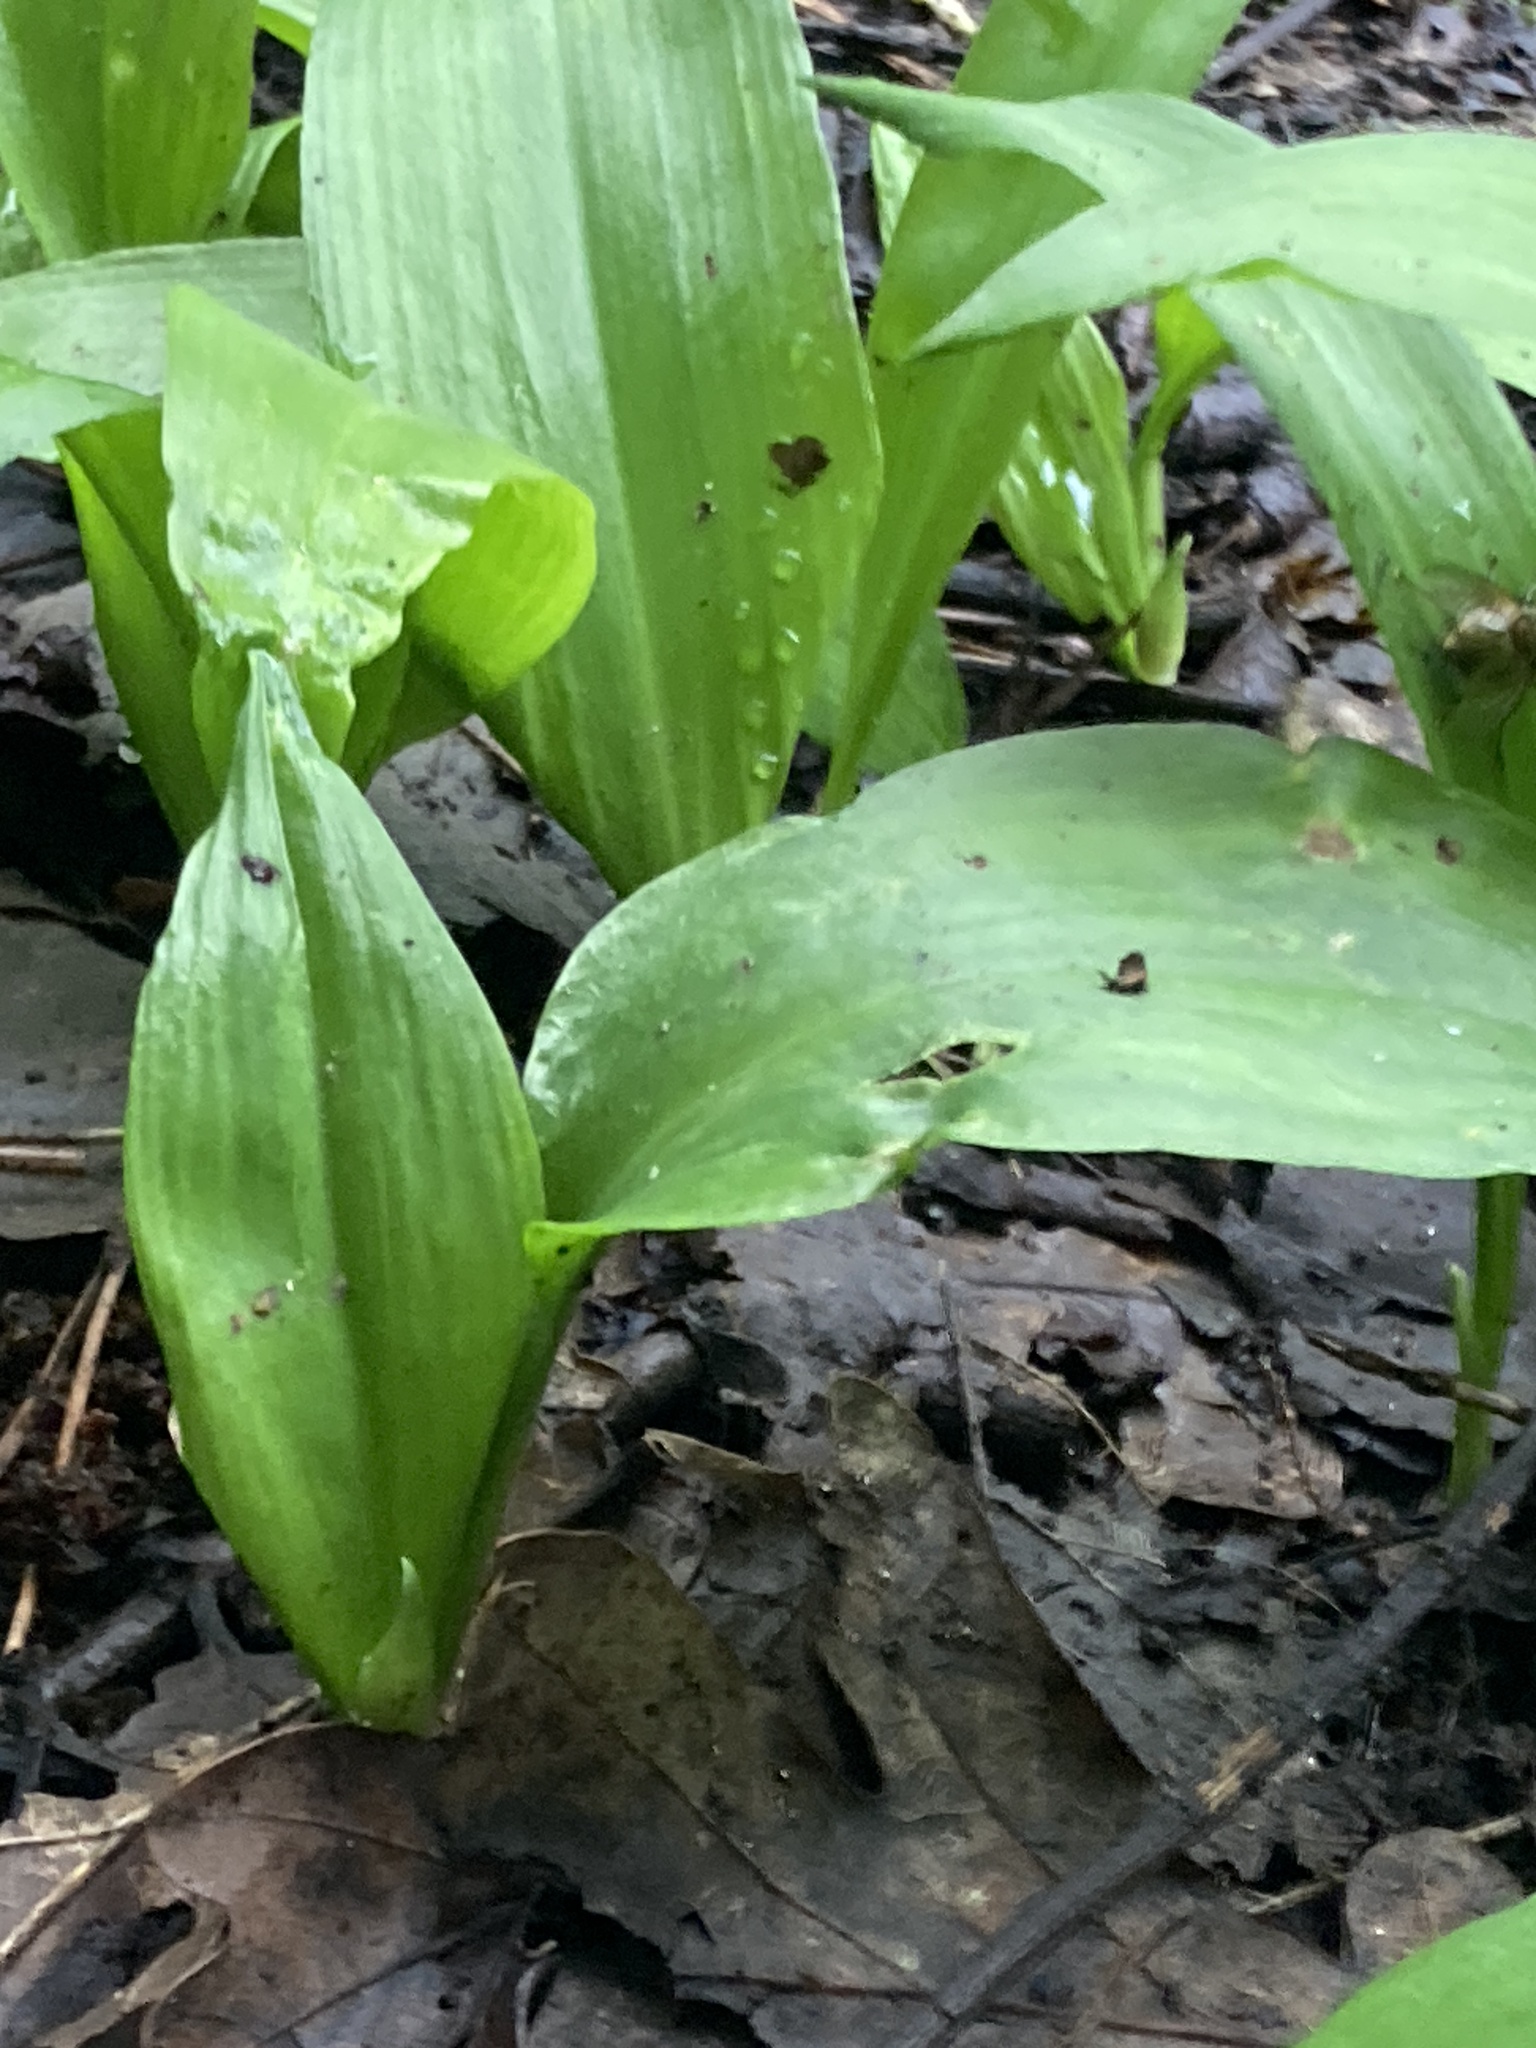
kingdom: Plantae
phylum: Tracheophyta
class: Liliopsida
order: Asparagales
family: Amaryllidaceae
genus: Allium
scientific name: Allium ursinum
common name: Ramsons
